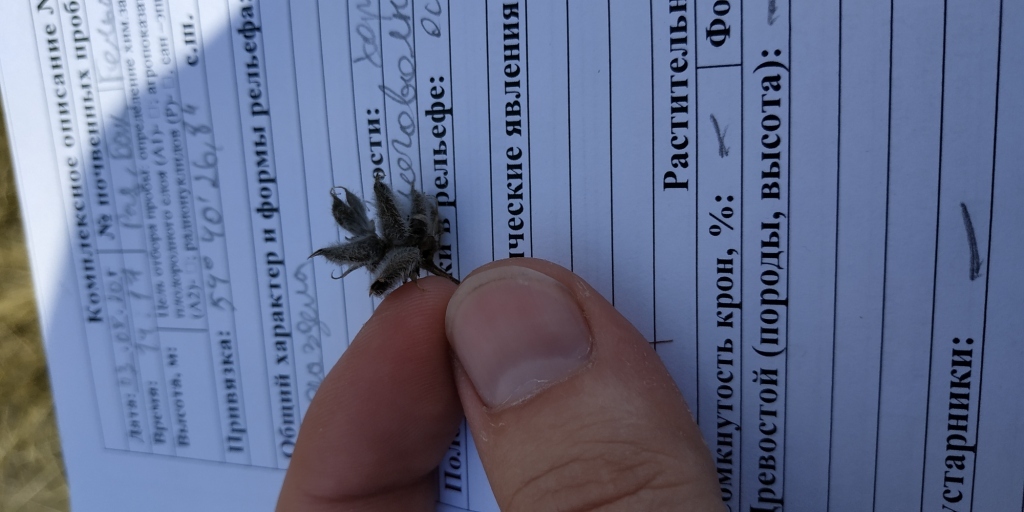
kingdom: Plantae
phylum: Tracheophyta
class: Magnoliopsida
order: Fabales
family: Fabaceae
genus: Astragalus
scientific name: Astragalus danicus
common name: Purple milk-vetch
